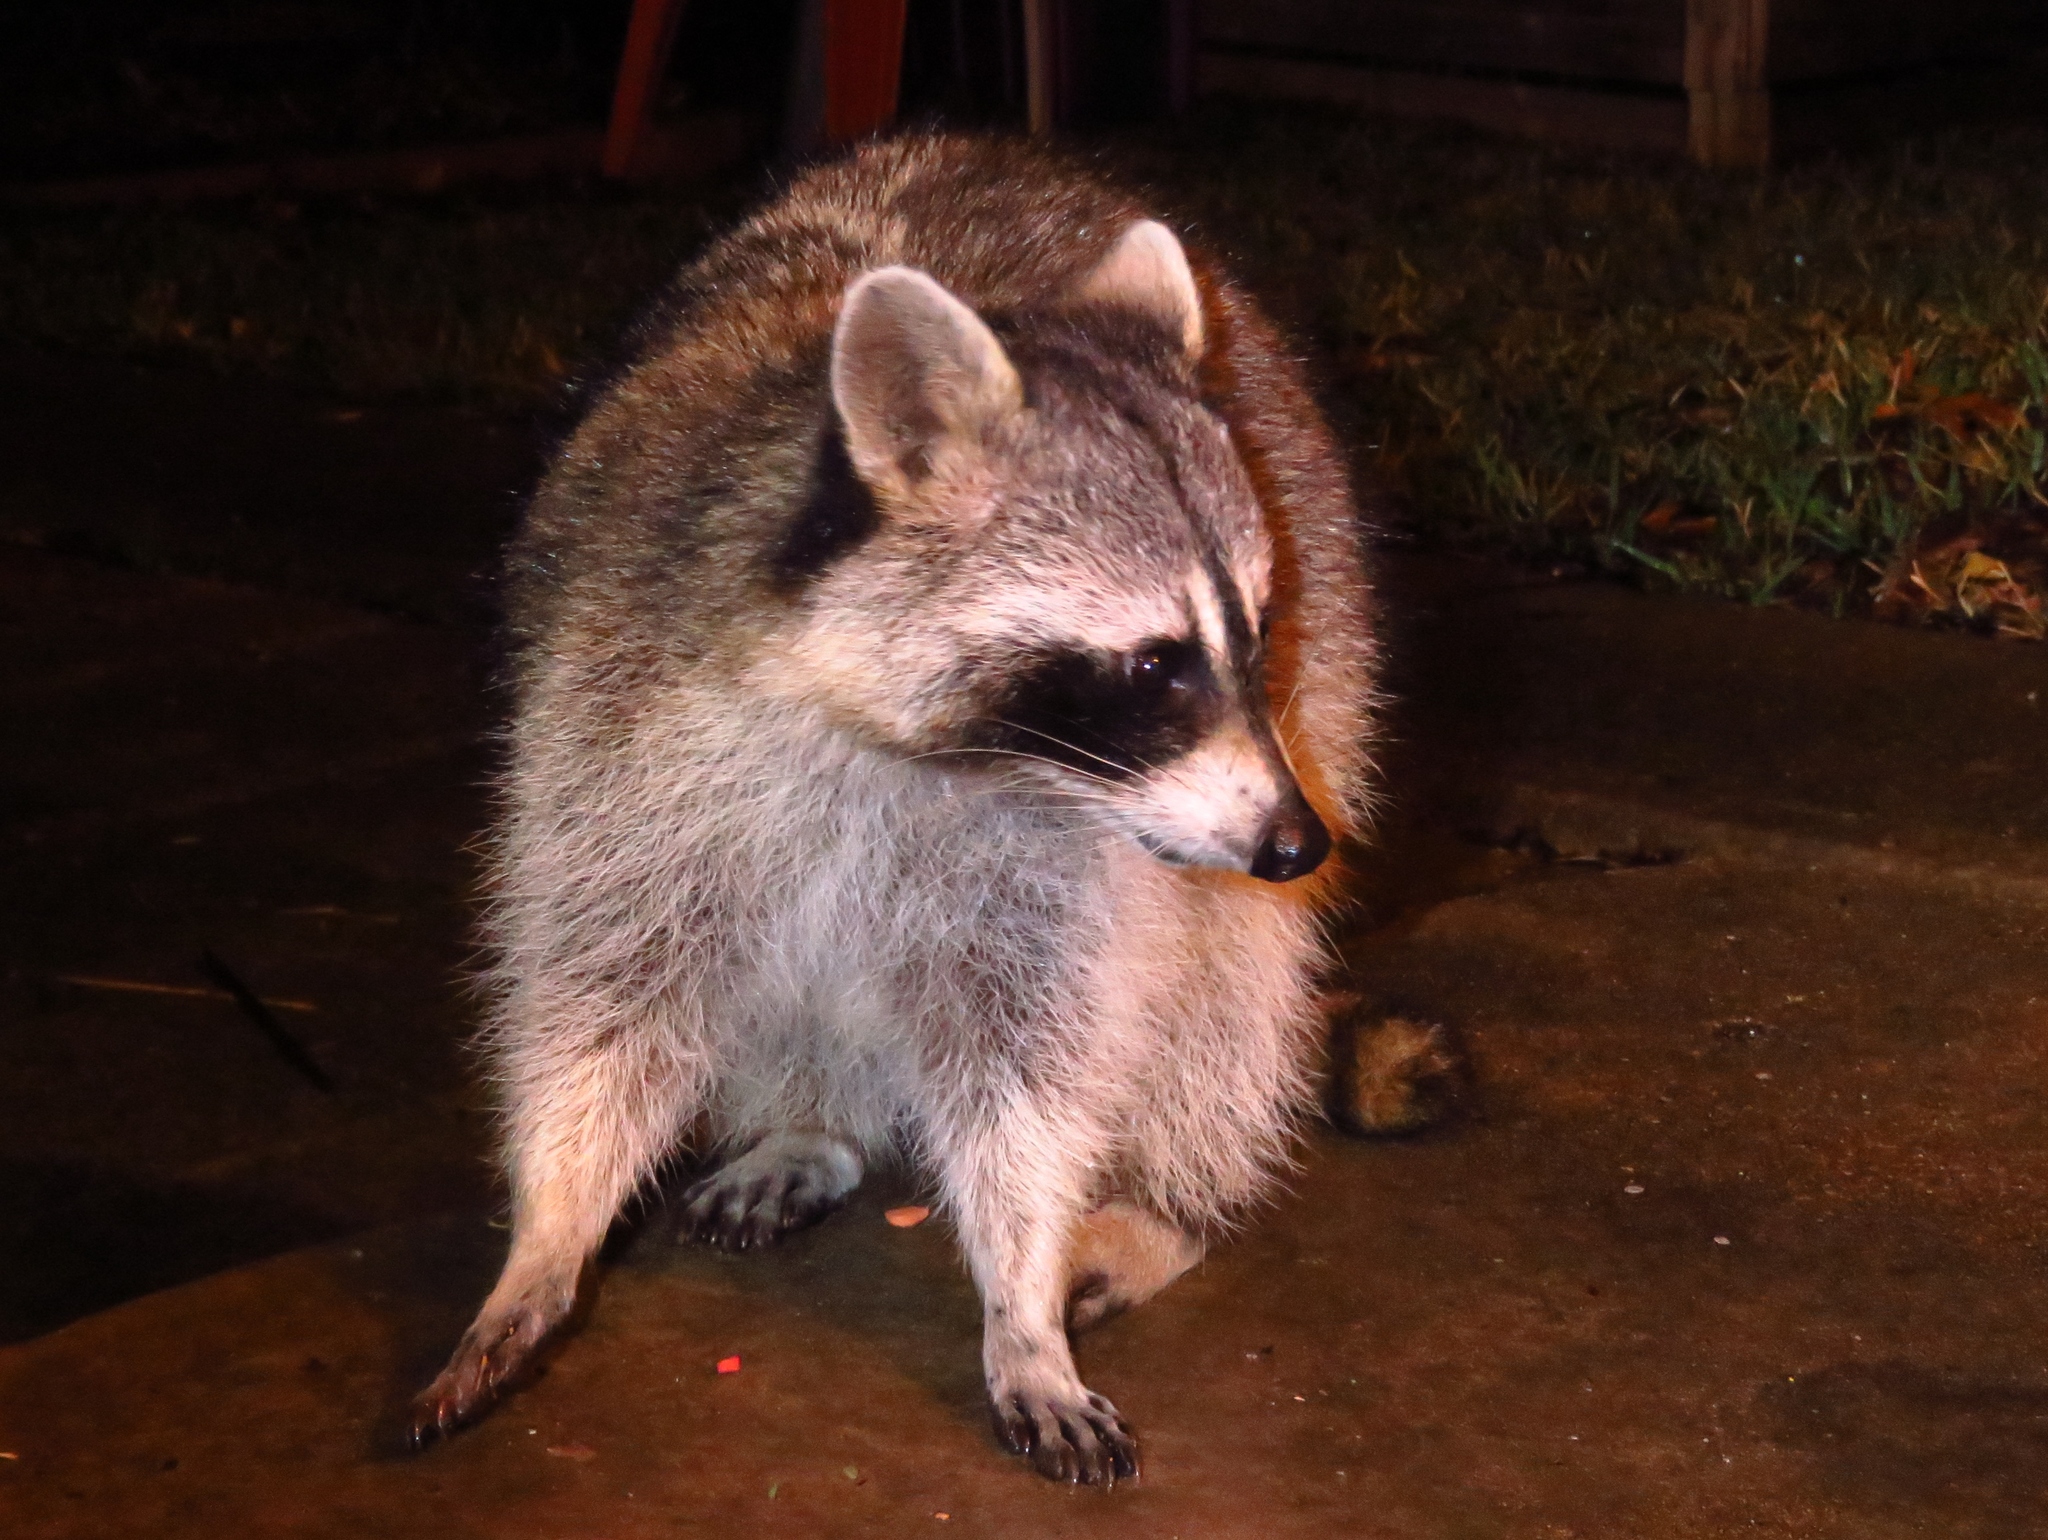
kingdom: Animalia
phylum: Chordata
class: Mammalia
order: Carnivora
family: Procyonidae
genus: Procyon
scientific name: Procyon lotor
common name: Raccoon
